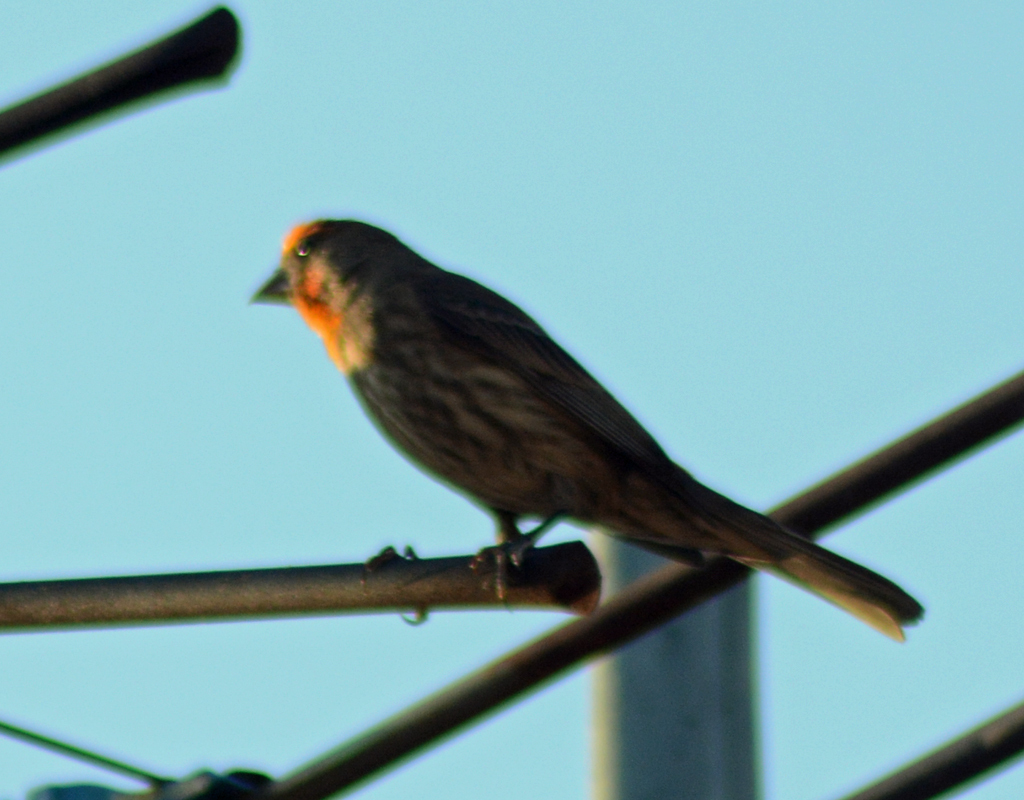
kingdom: Animalia
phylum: Chordata
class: Aves
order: Passeriformes
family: Fringillidae
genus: Haemorhous
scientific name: Haemorhous mexicanus
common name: House finch
